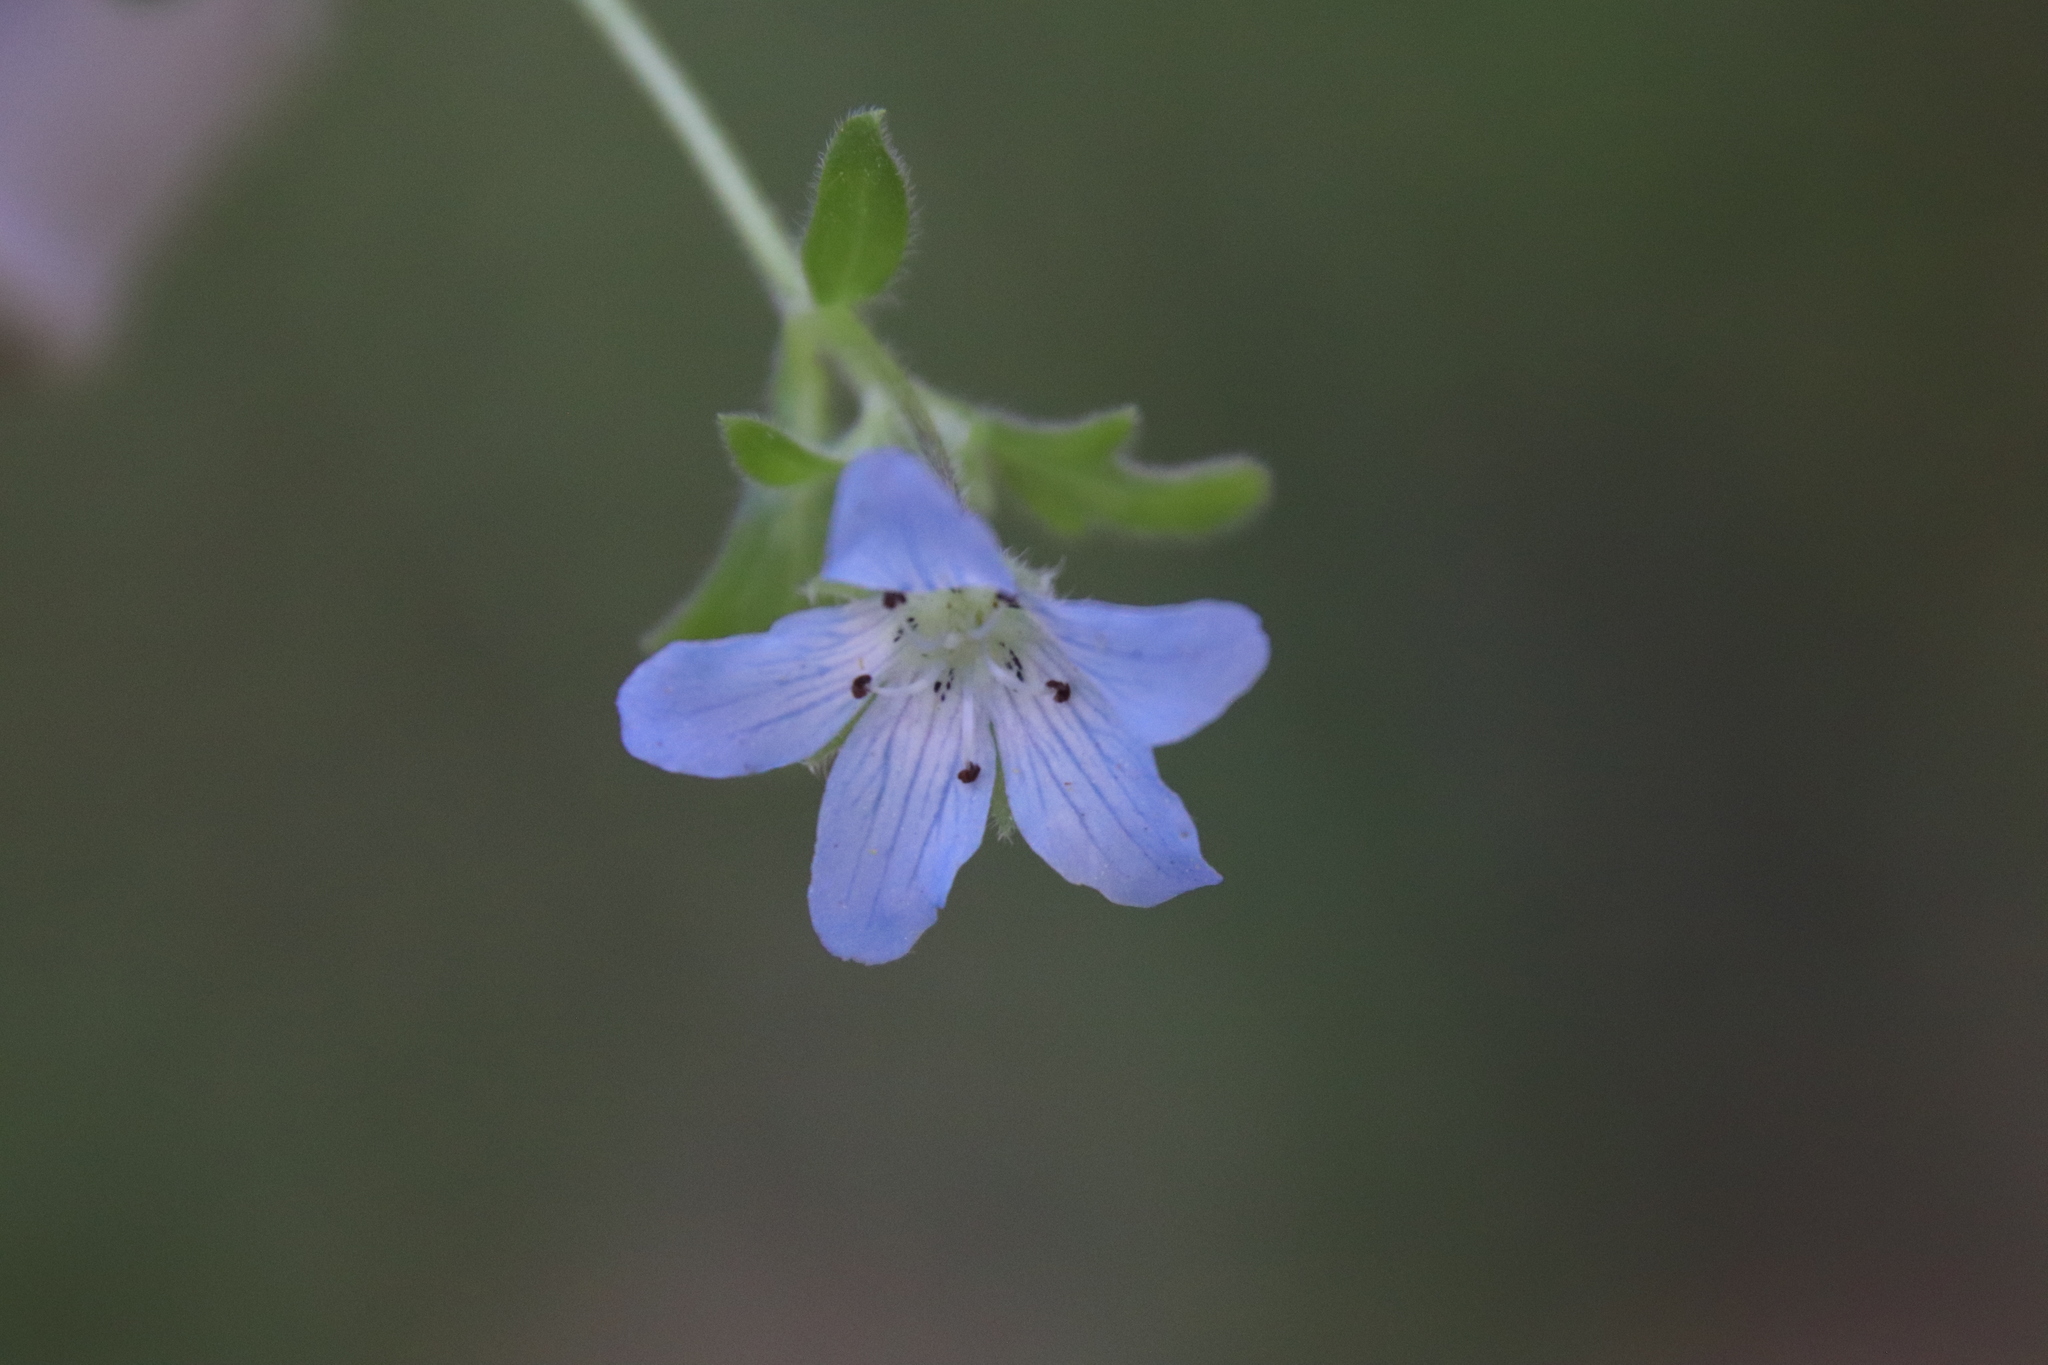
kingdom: Plantae
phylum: Tracheophyta
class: Magnoliopsida
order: Boraginales
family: Hydrophyllaceae
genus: Nemophila
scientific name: Nemophila menziesii
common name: Baby's-blue-eyes
